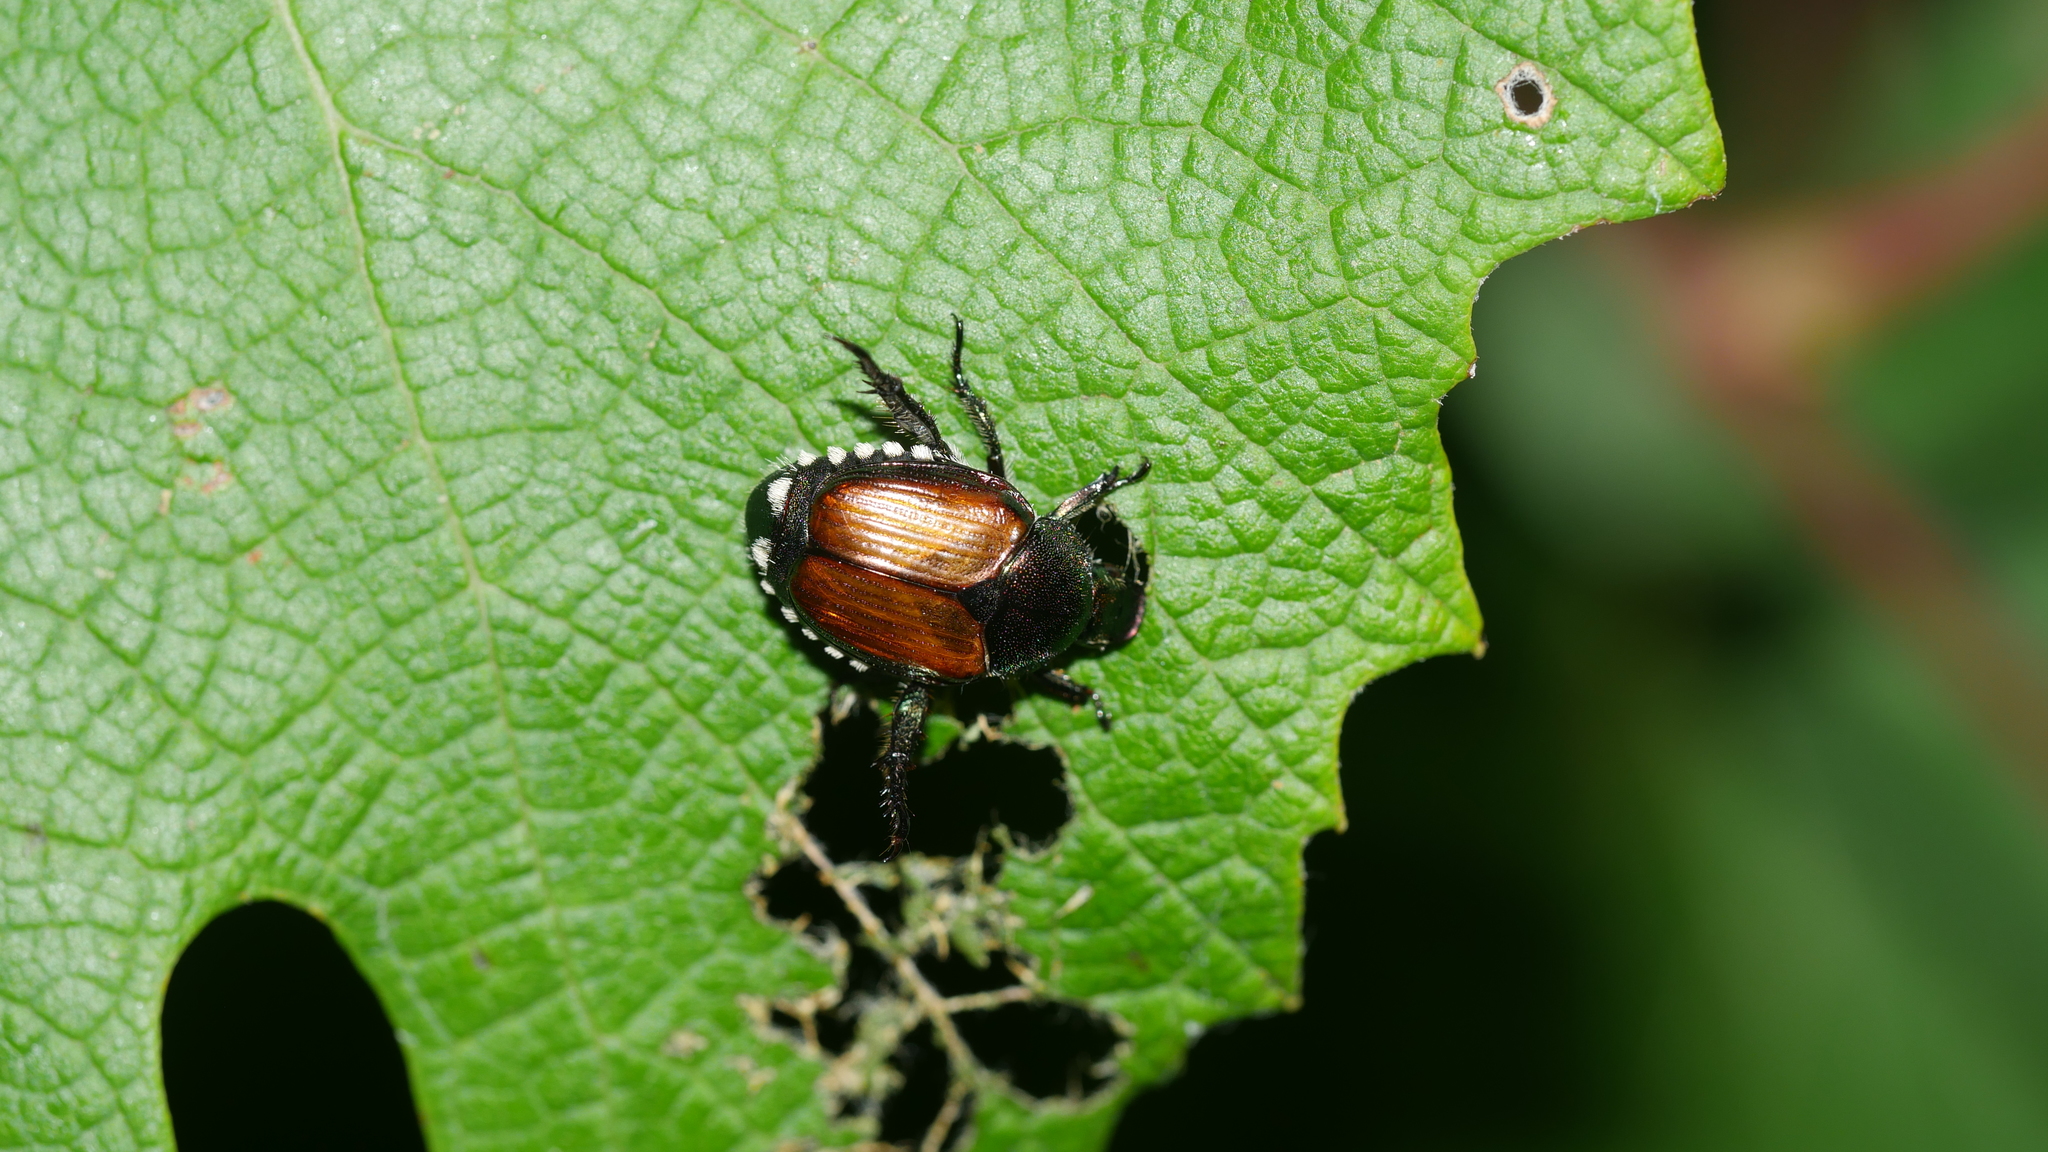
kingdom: Animalia
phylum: Arthropoda
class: Insecta
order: Coleoptera
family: Scarabaeidae
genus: Popillia
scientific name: Popillia japonica
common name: Japanese beetle
